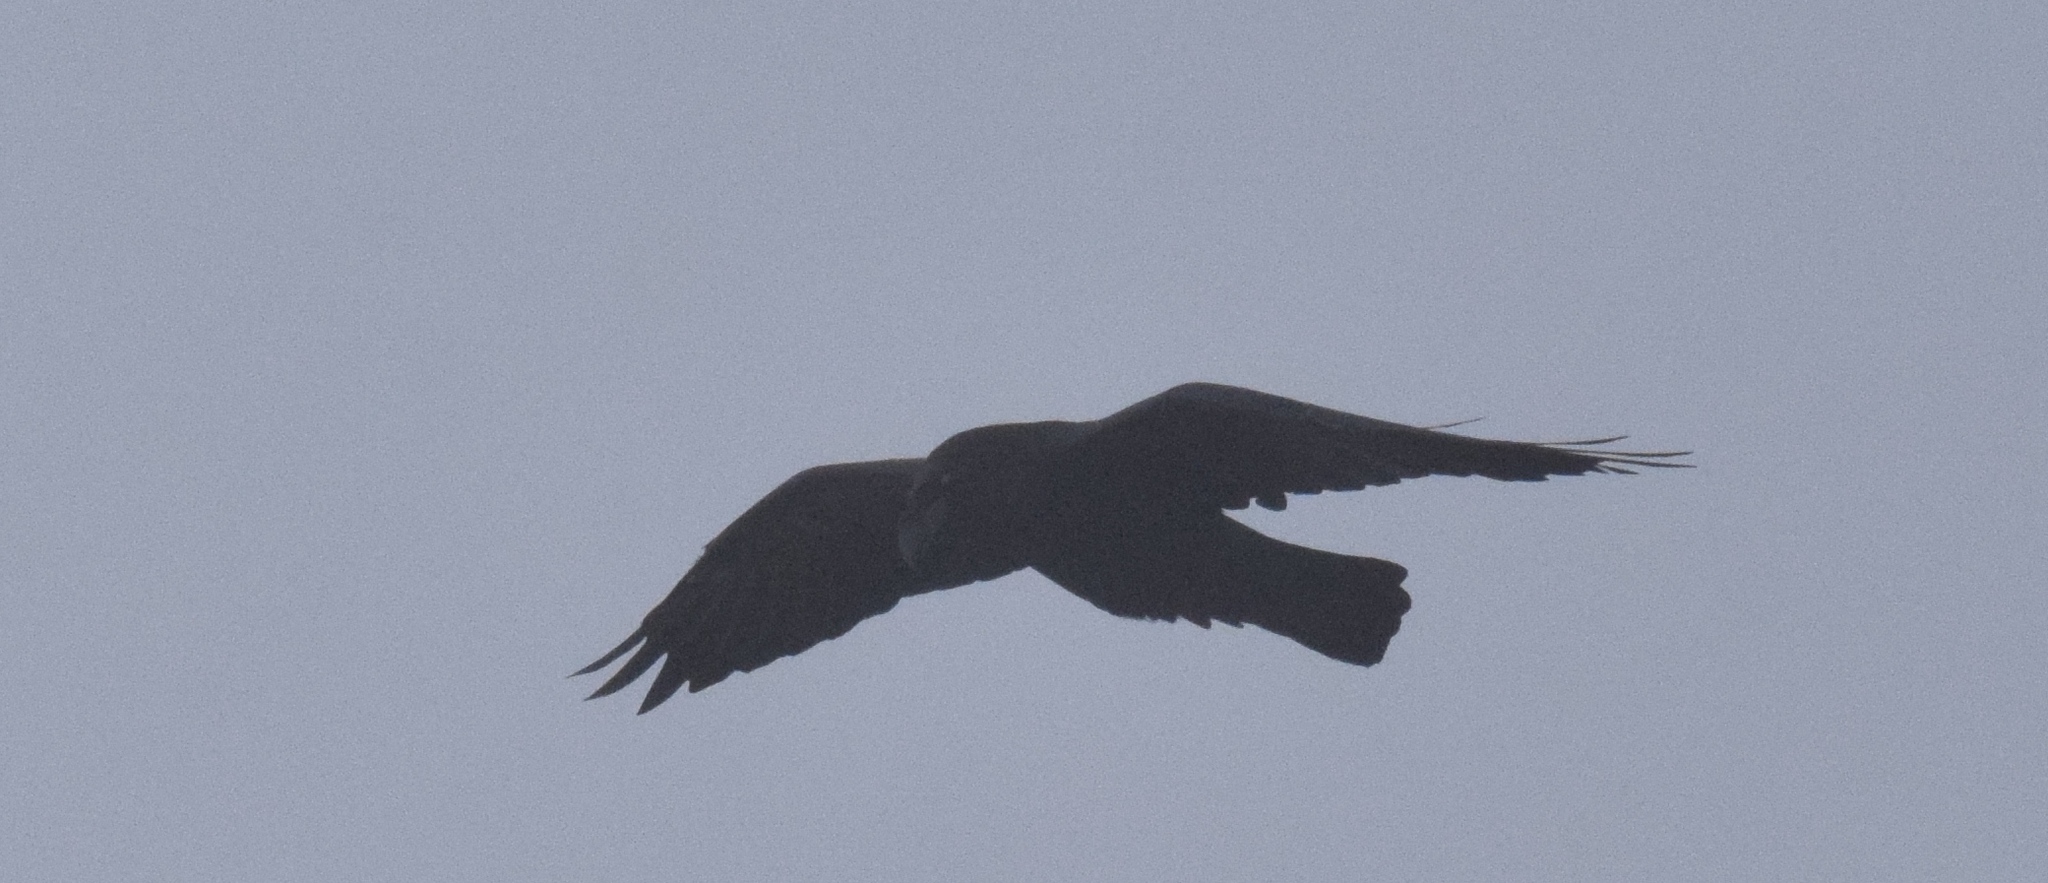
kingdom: Animalia
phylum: Chordata
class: Aves
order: Passeriformes
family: Corvidae
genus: Corvus
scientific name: Corvus corax
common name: Common raven
